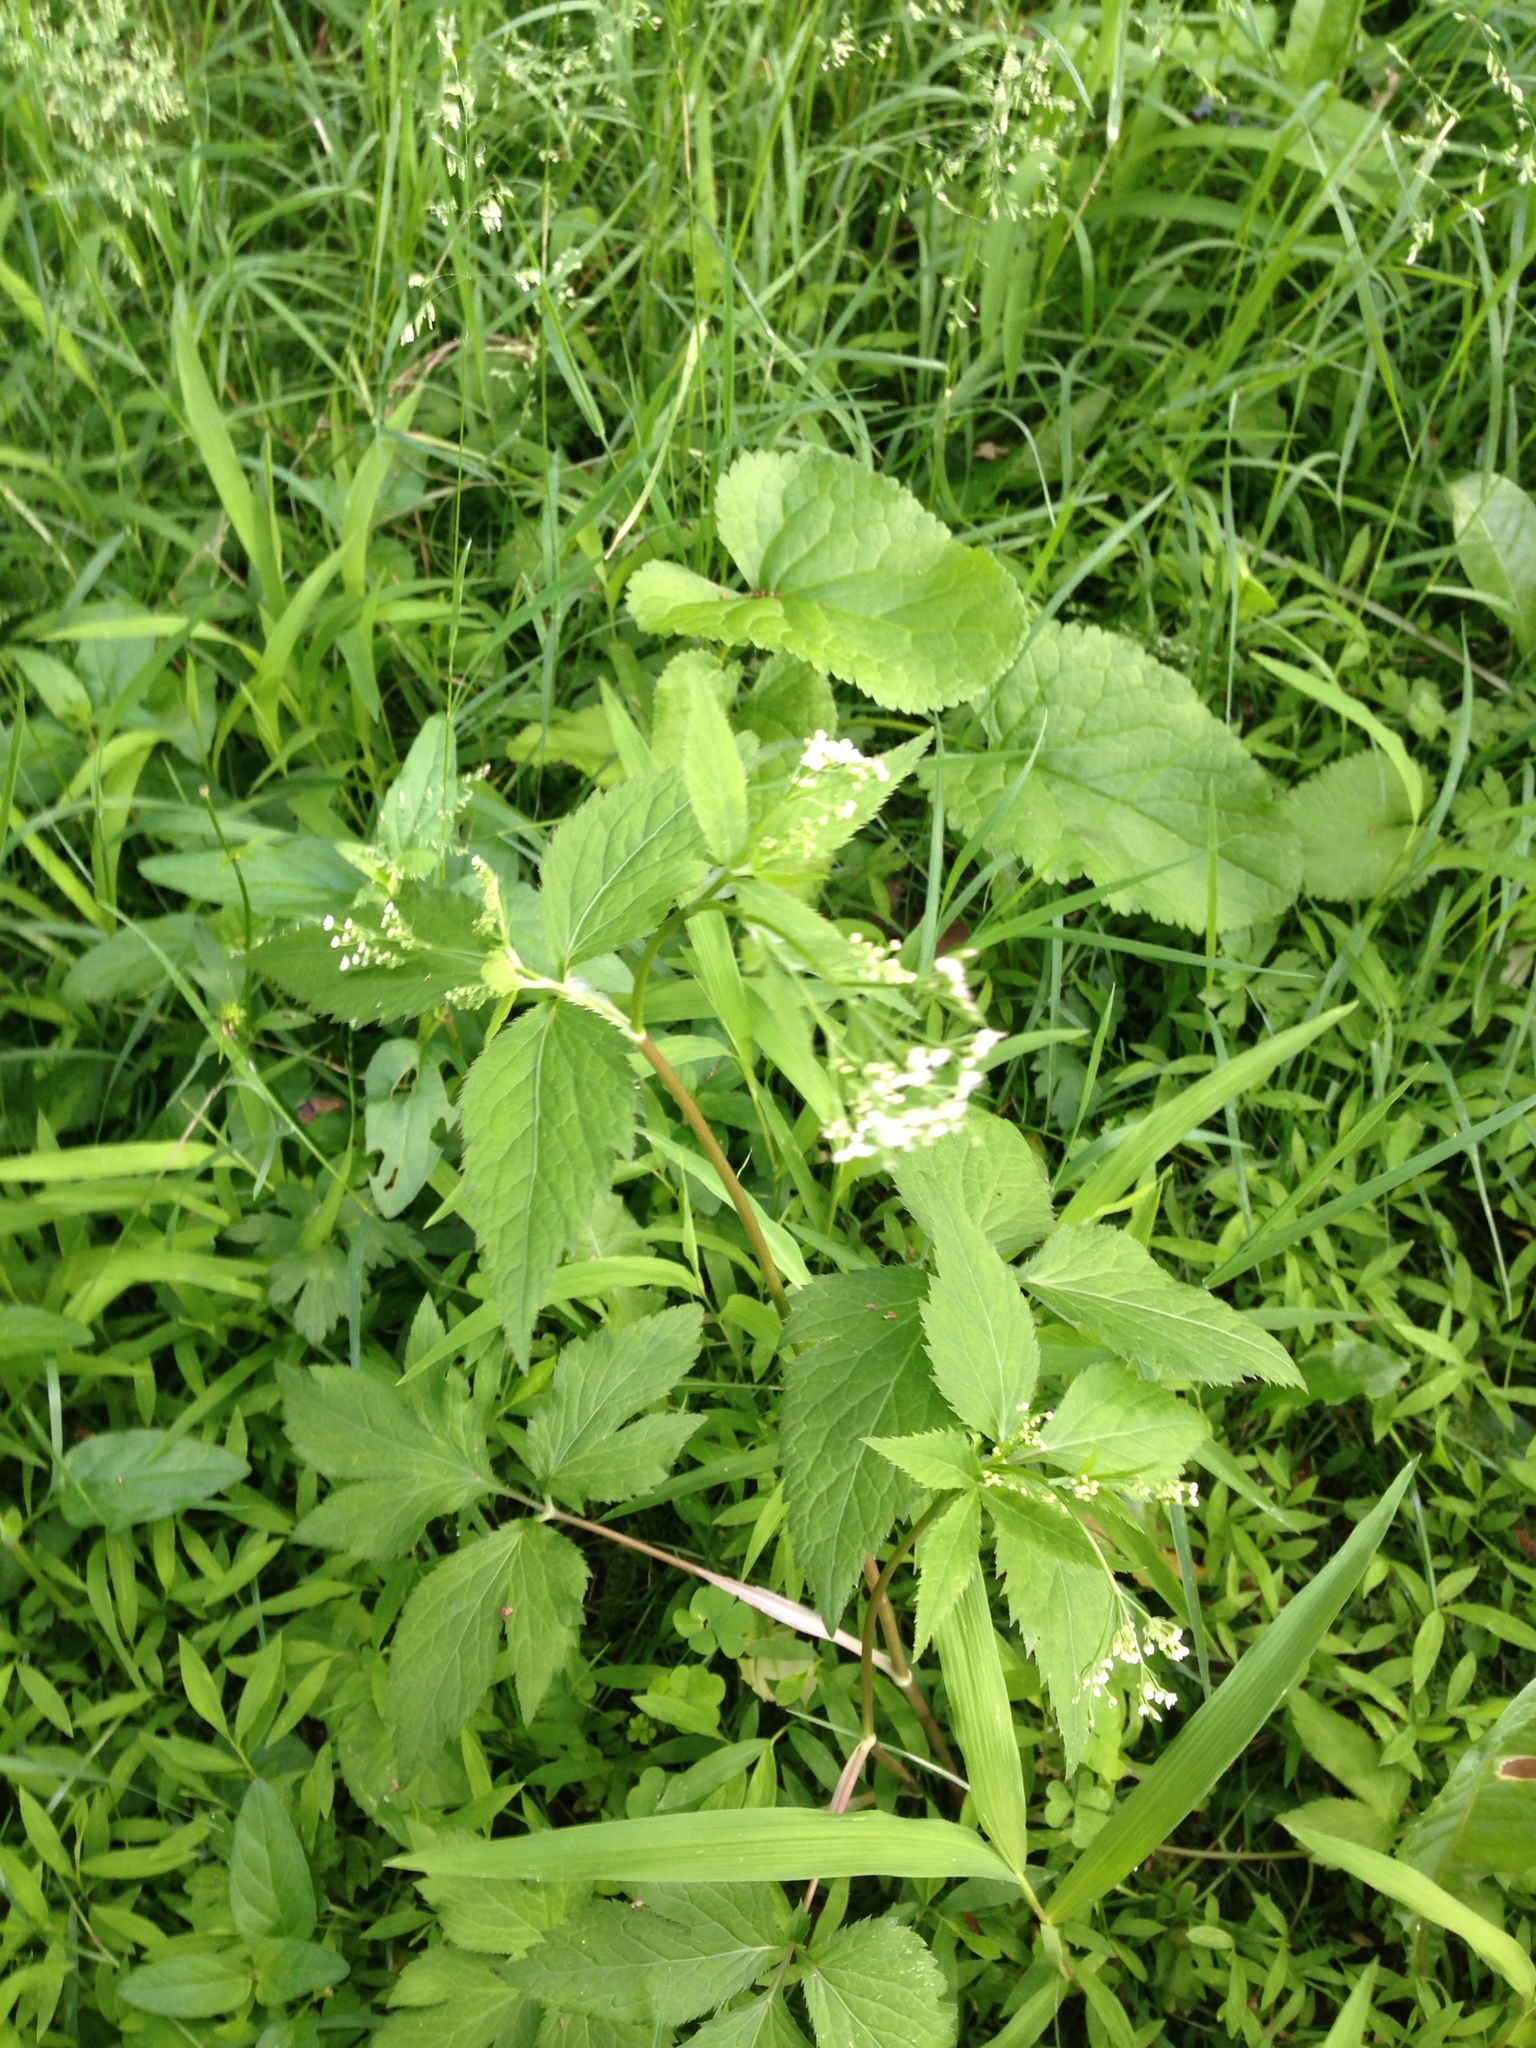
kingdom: Plantae
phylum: Tracheophyta
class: Magnoliopsida
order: Apiales
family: Apiaceae
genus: Cryptotaenia
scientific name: Cryptotaenia canadensis
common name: Honewort
